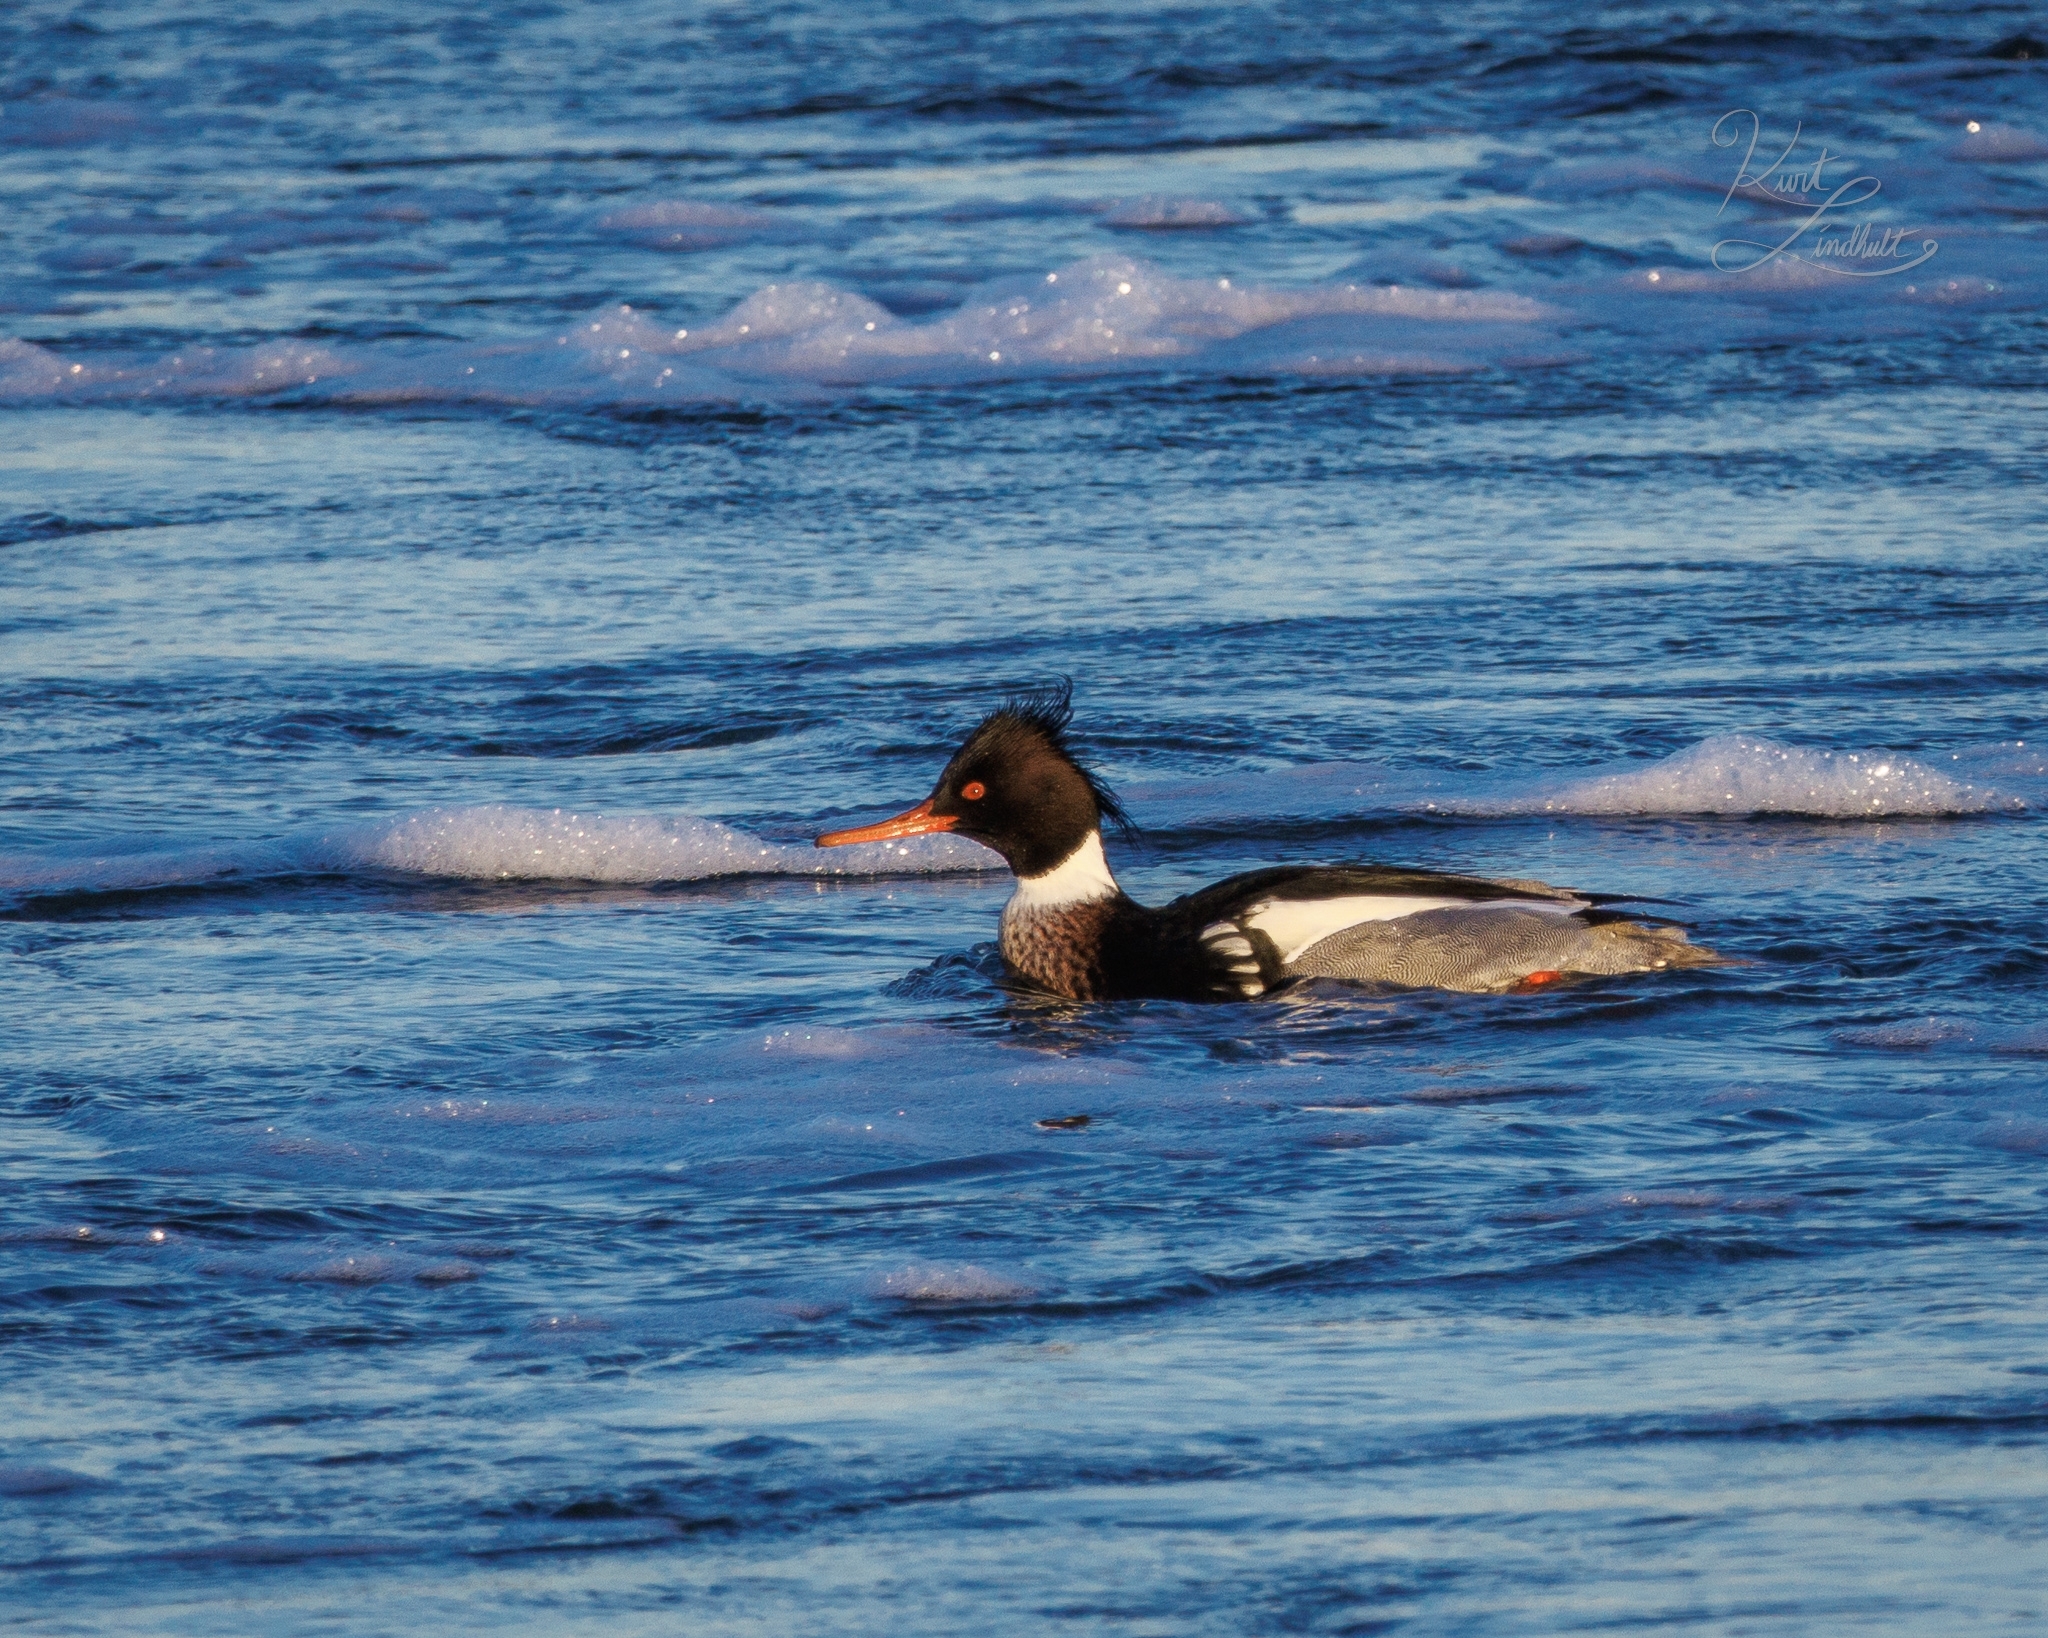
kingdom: Animalia
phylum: Chordata
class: Aves
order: Anseriformes
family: Anatidae
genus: Mergus
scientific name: Mergus serrator
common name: Red-breasted merganser
